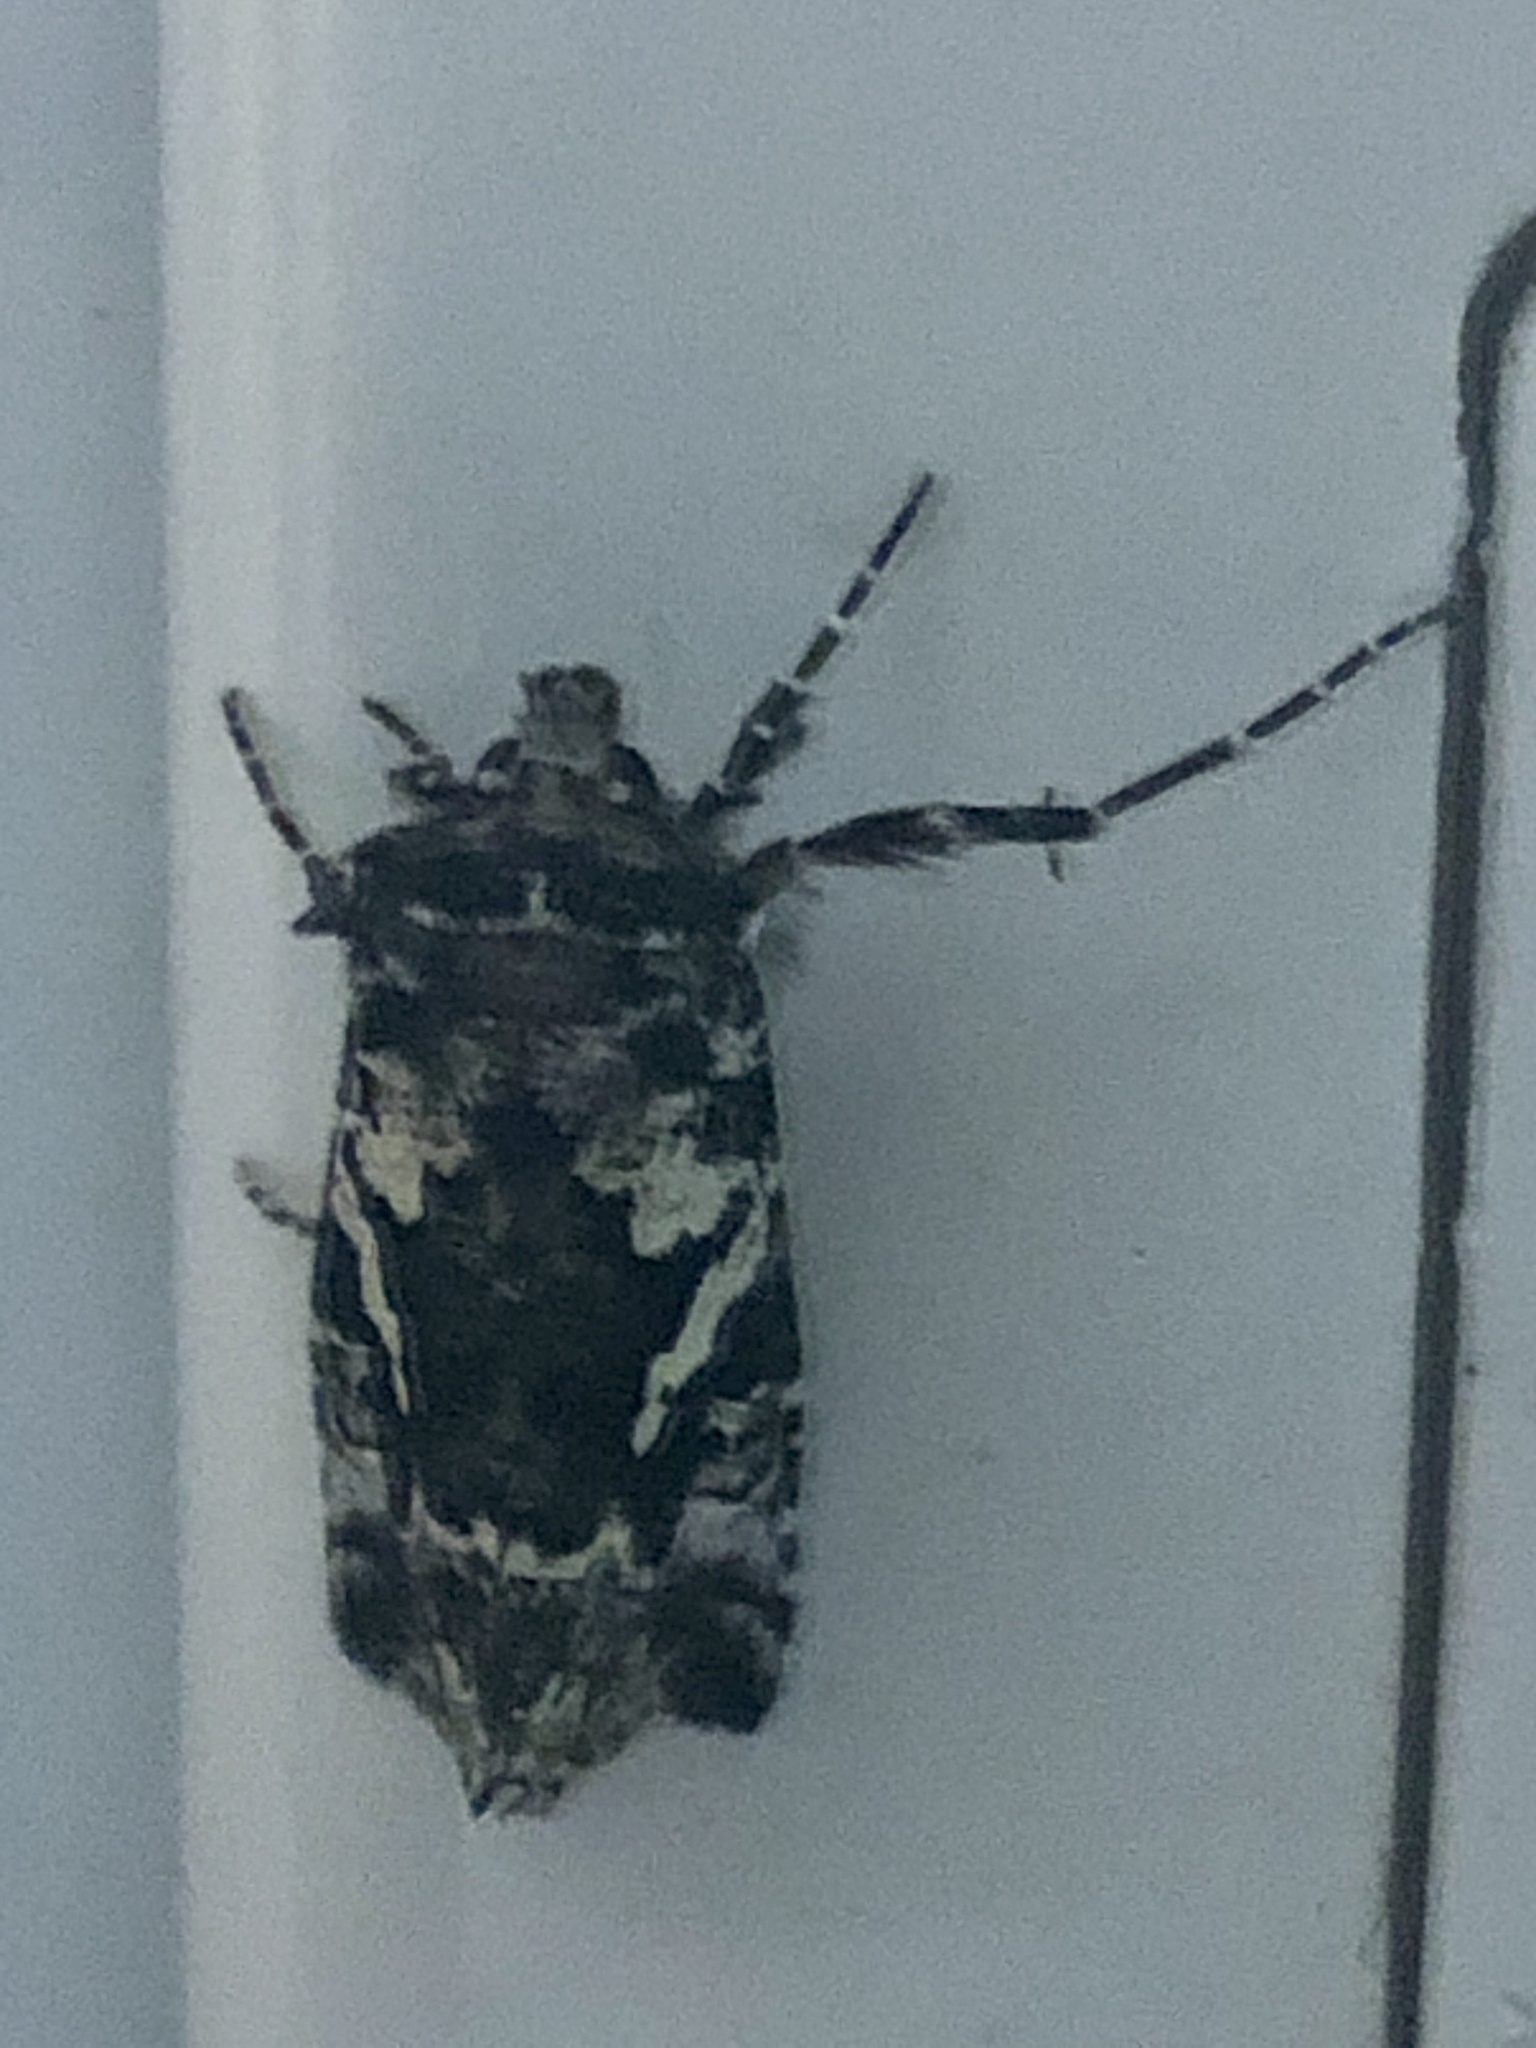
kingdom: Animalia
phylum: Arthropoda
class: Insecta
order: Lepidoptera
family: Noctuidae
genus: Syngrapha
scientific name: Syngrapha rectangula
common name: Angulated cutworm
